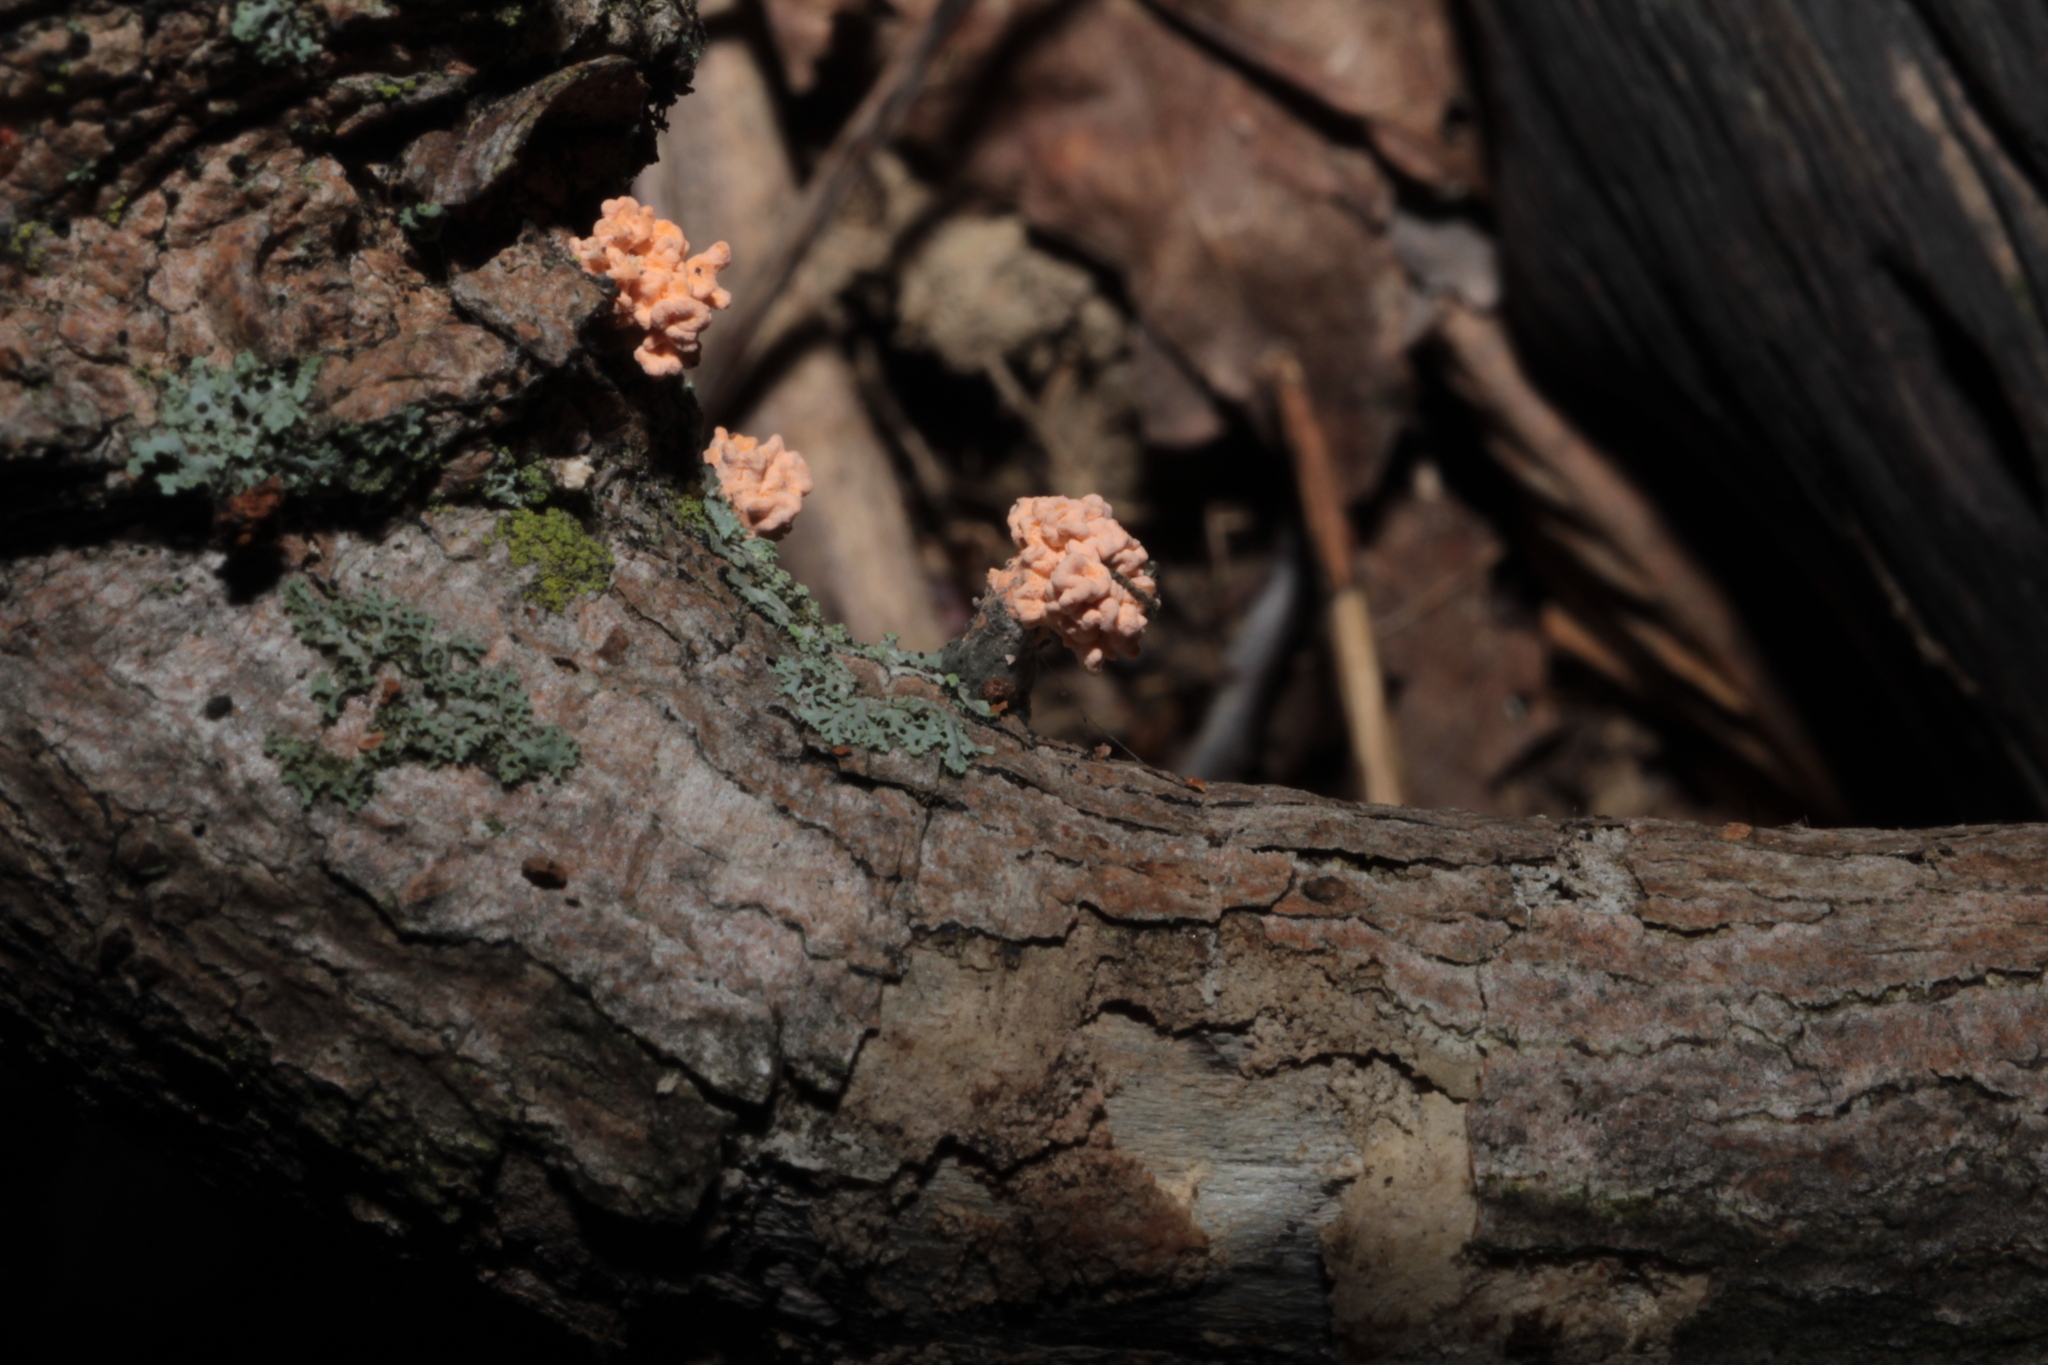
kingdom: Fungi
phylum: Ascomycota
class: Sordariomycetes
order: Xylariales
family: Xylariaceae
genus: Xylaria
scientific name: Xylaria cubensis
